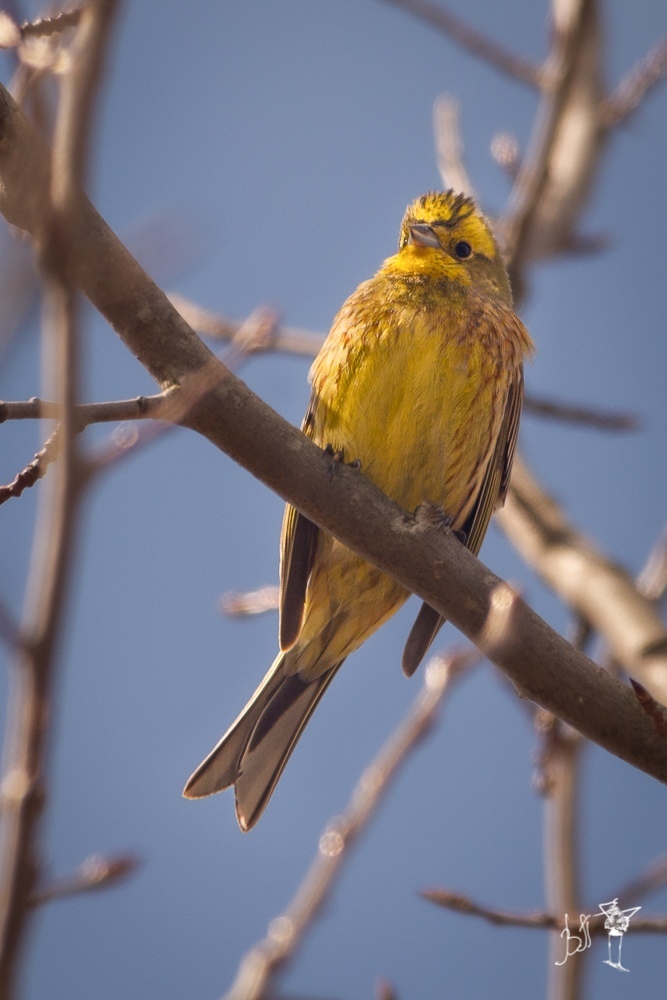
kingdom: Animalia
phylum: Chordata
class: Aves
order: Passeriformes
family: Emberizidae
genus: Emberiza
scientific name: Emberiza citrinella
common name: Yellowhammer
